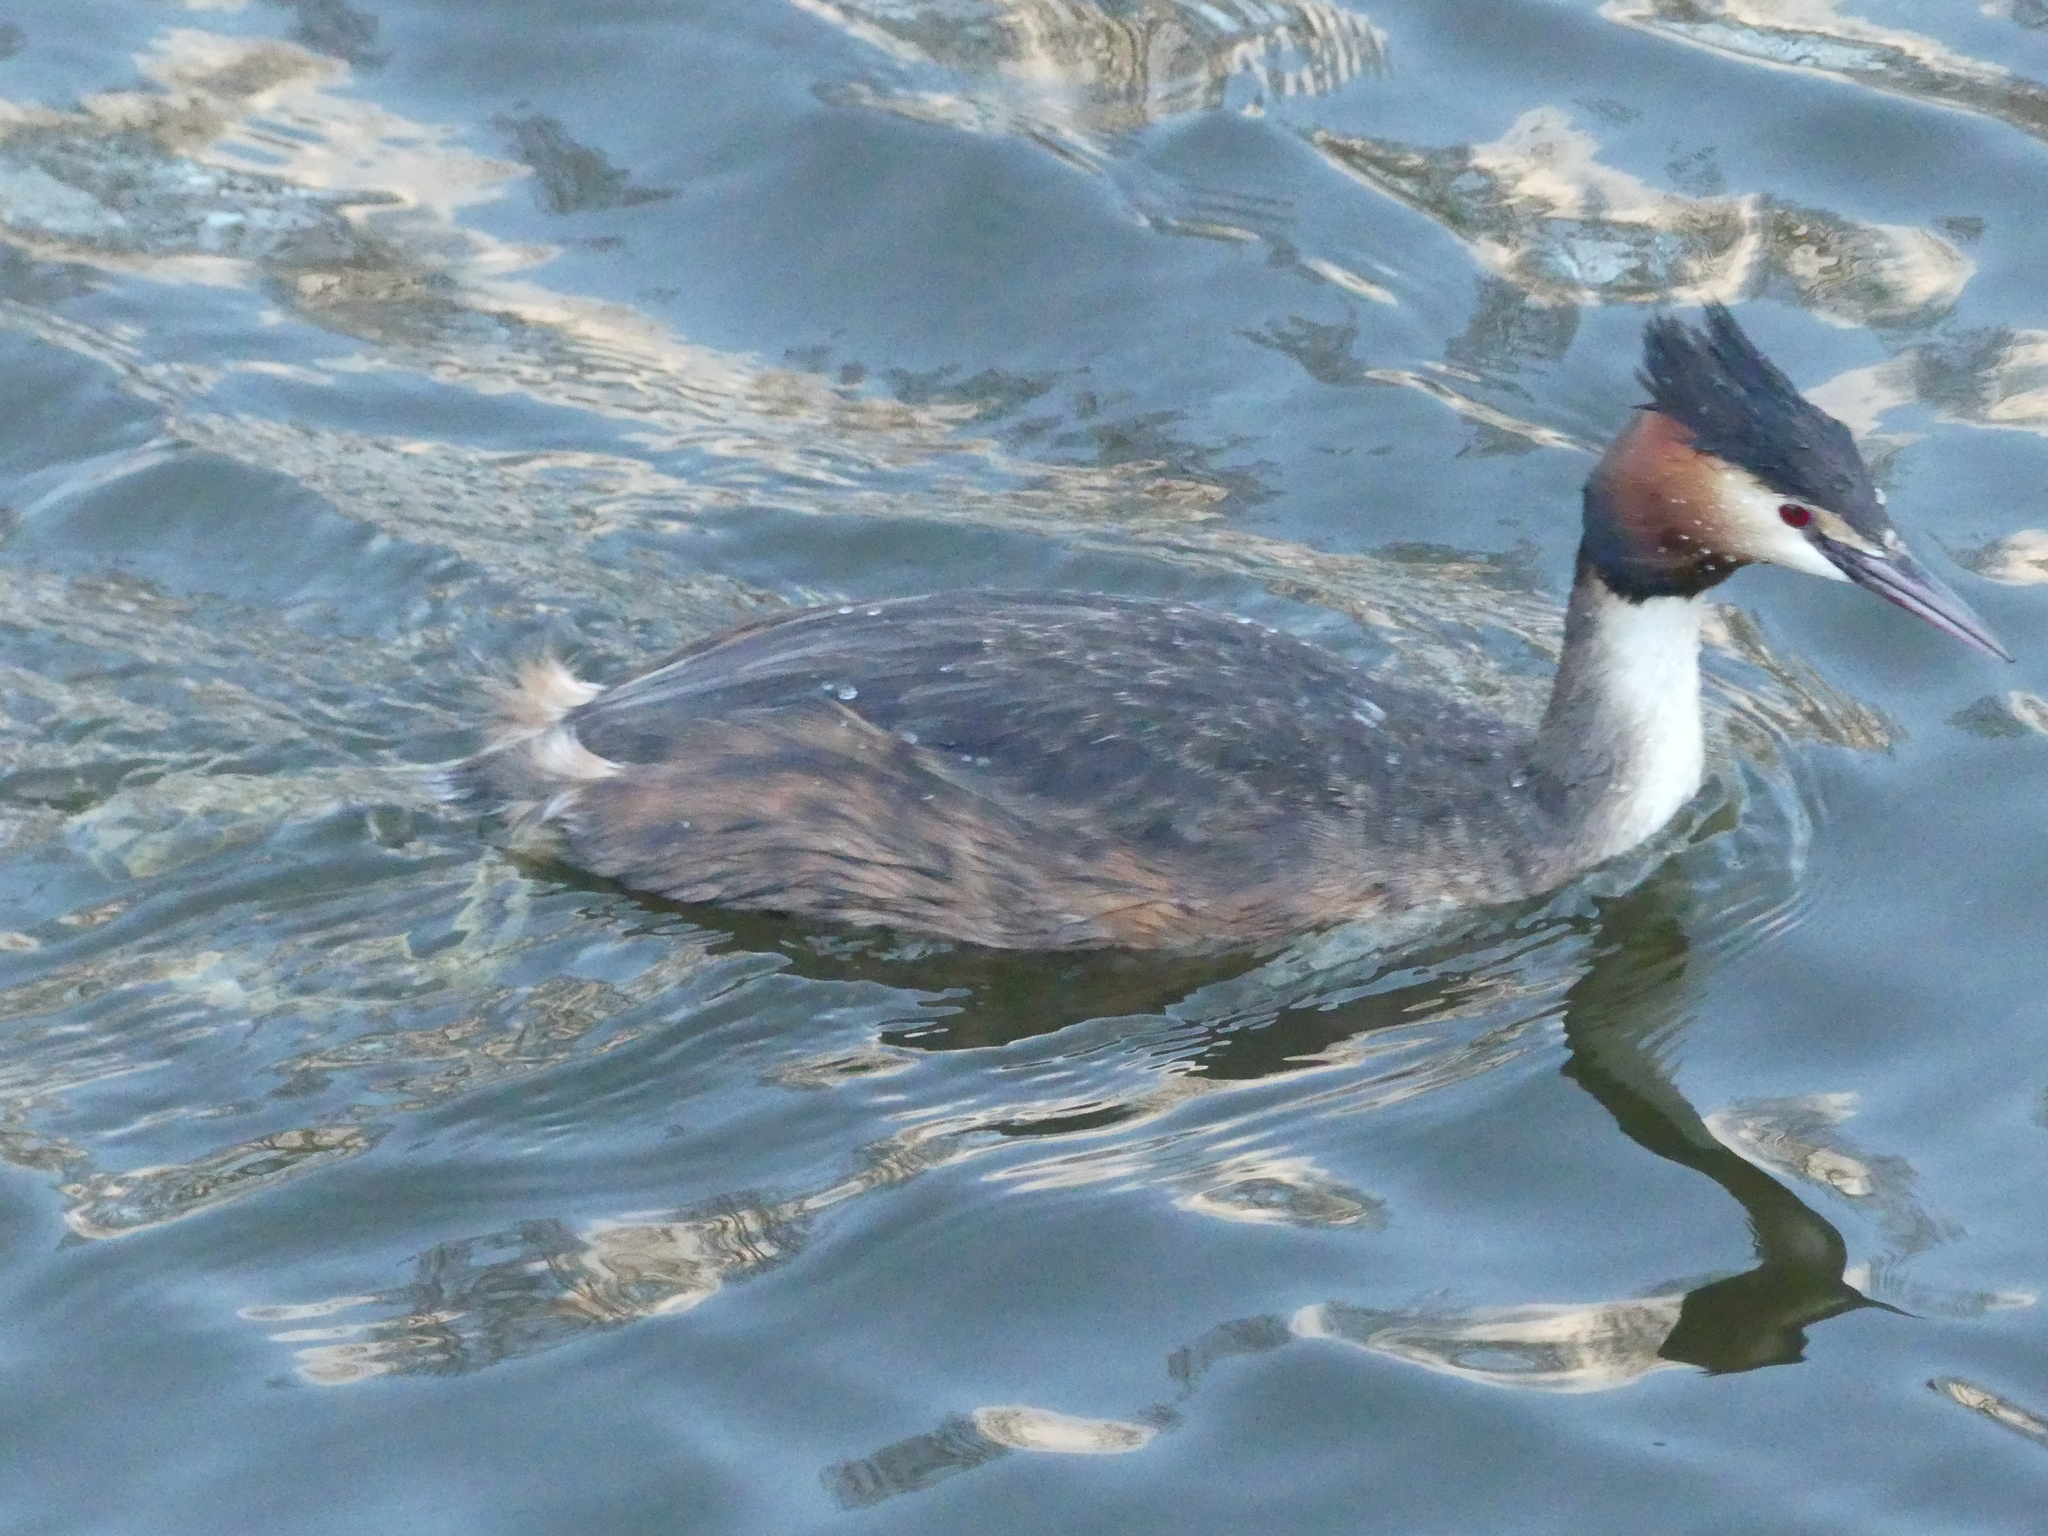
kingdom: Animalia
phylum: Chordata
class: Aves
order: Podicipediformes
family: Podicipedidae
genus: Podiceps
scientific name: Podiceps cristatus
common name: Great crested grebe
